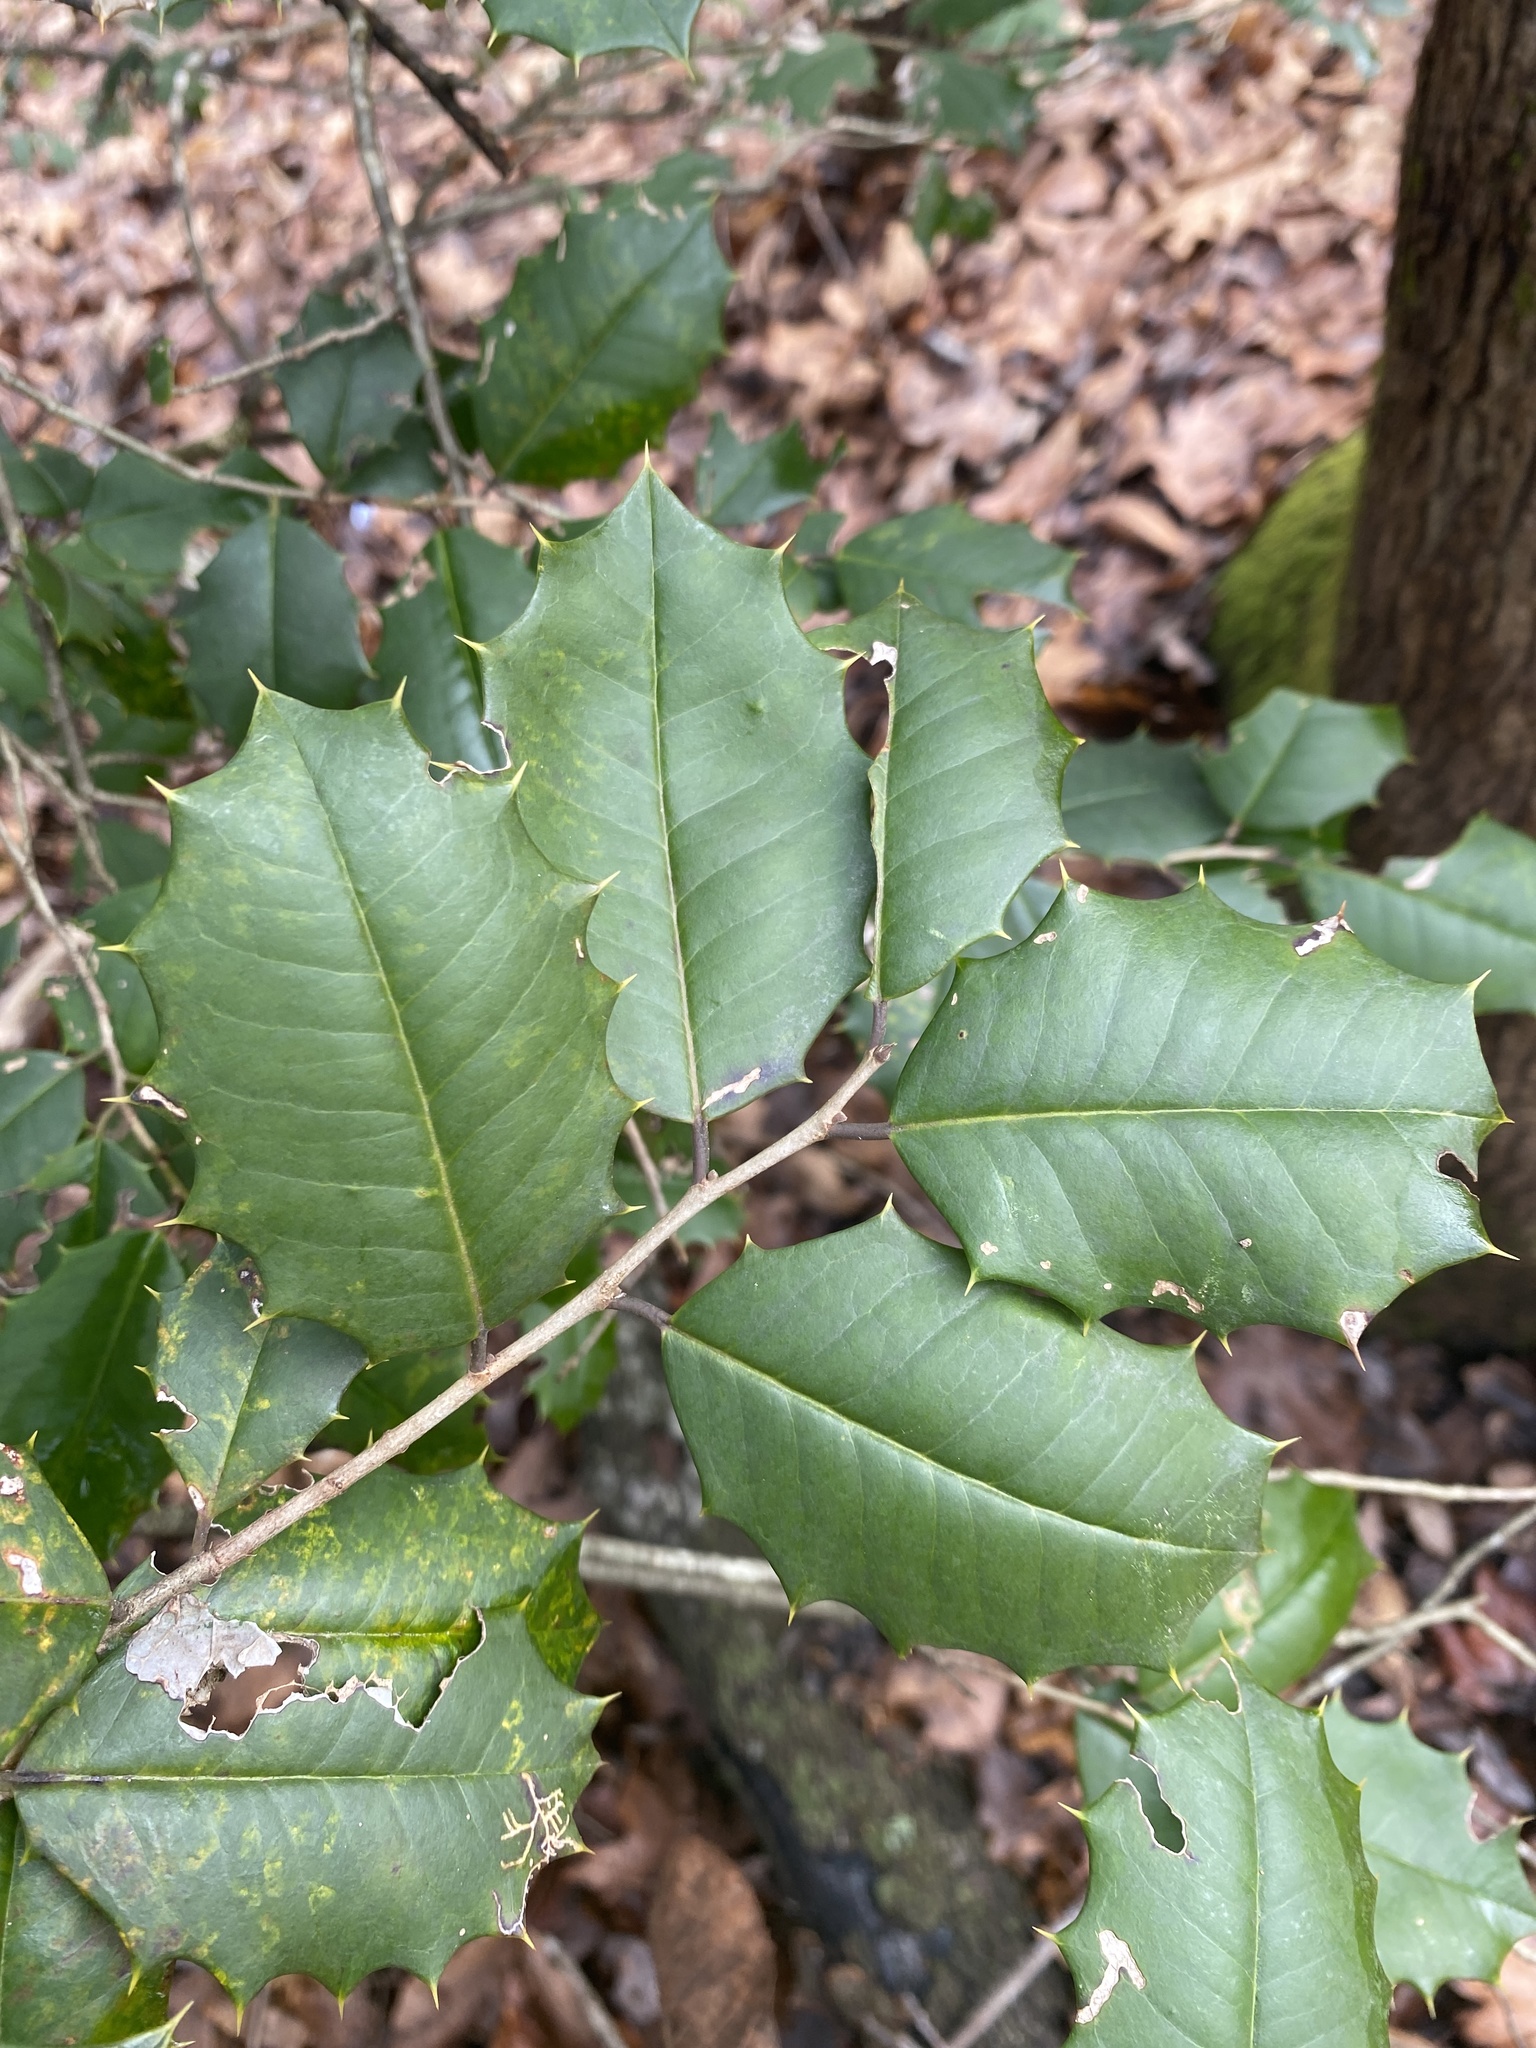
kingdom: Plantae
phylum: Tracheophyta
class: Magnoliopsida
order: Aquifoliales
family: Aquifoliaceae
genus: Ilex
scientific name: Ilex opaca
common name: American holly
